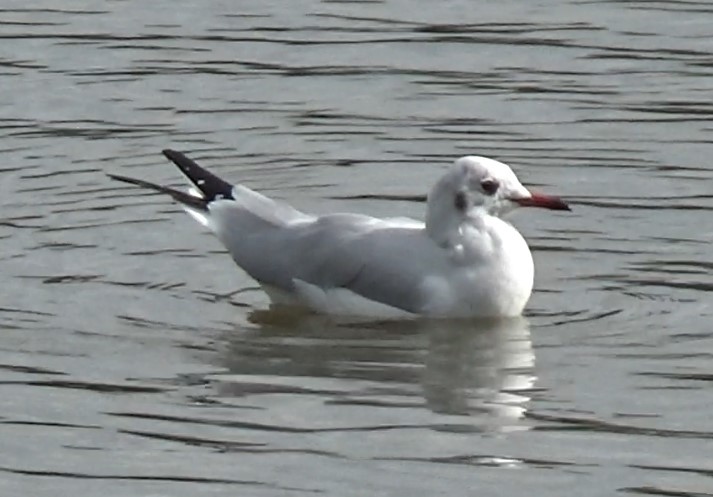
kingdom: Animalia
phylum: Chordata
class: Aves
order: Charadriiformes
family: Laridae
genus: Chroicocephalus
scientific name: Chroicocephalus ridibundus
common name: Black-headed gull
